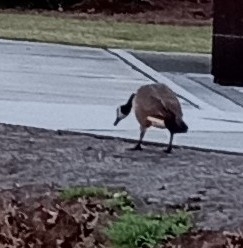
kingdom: Animalia
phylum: Chordata
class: Aves
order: Anseriformes
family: Anatidae
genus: Branta
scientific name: Branta canadensis
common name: Canada goose
